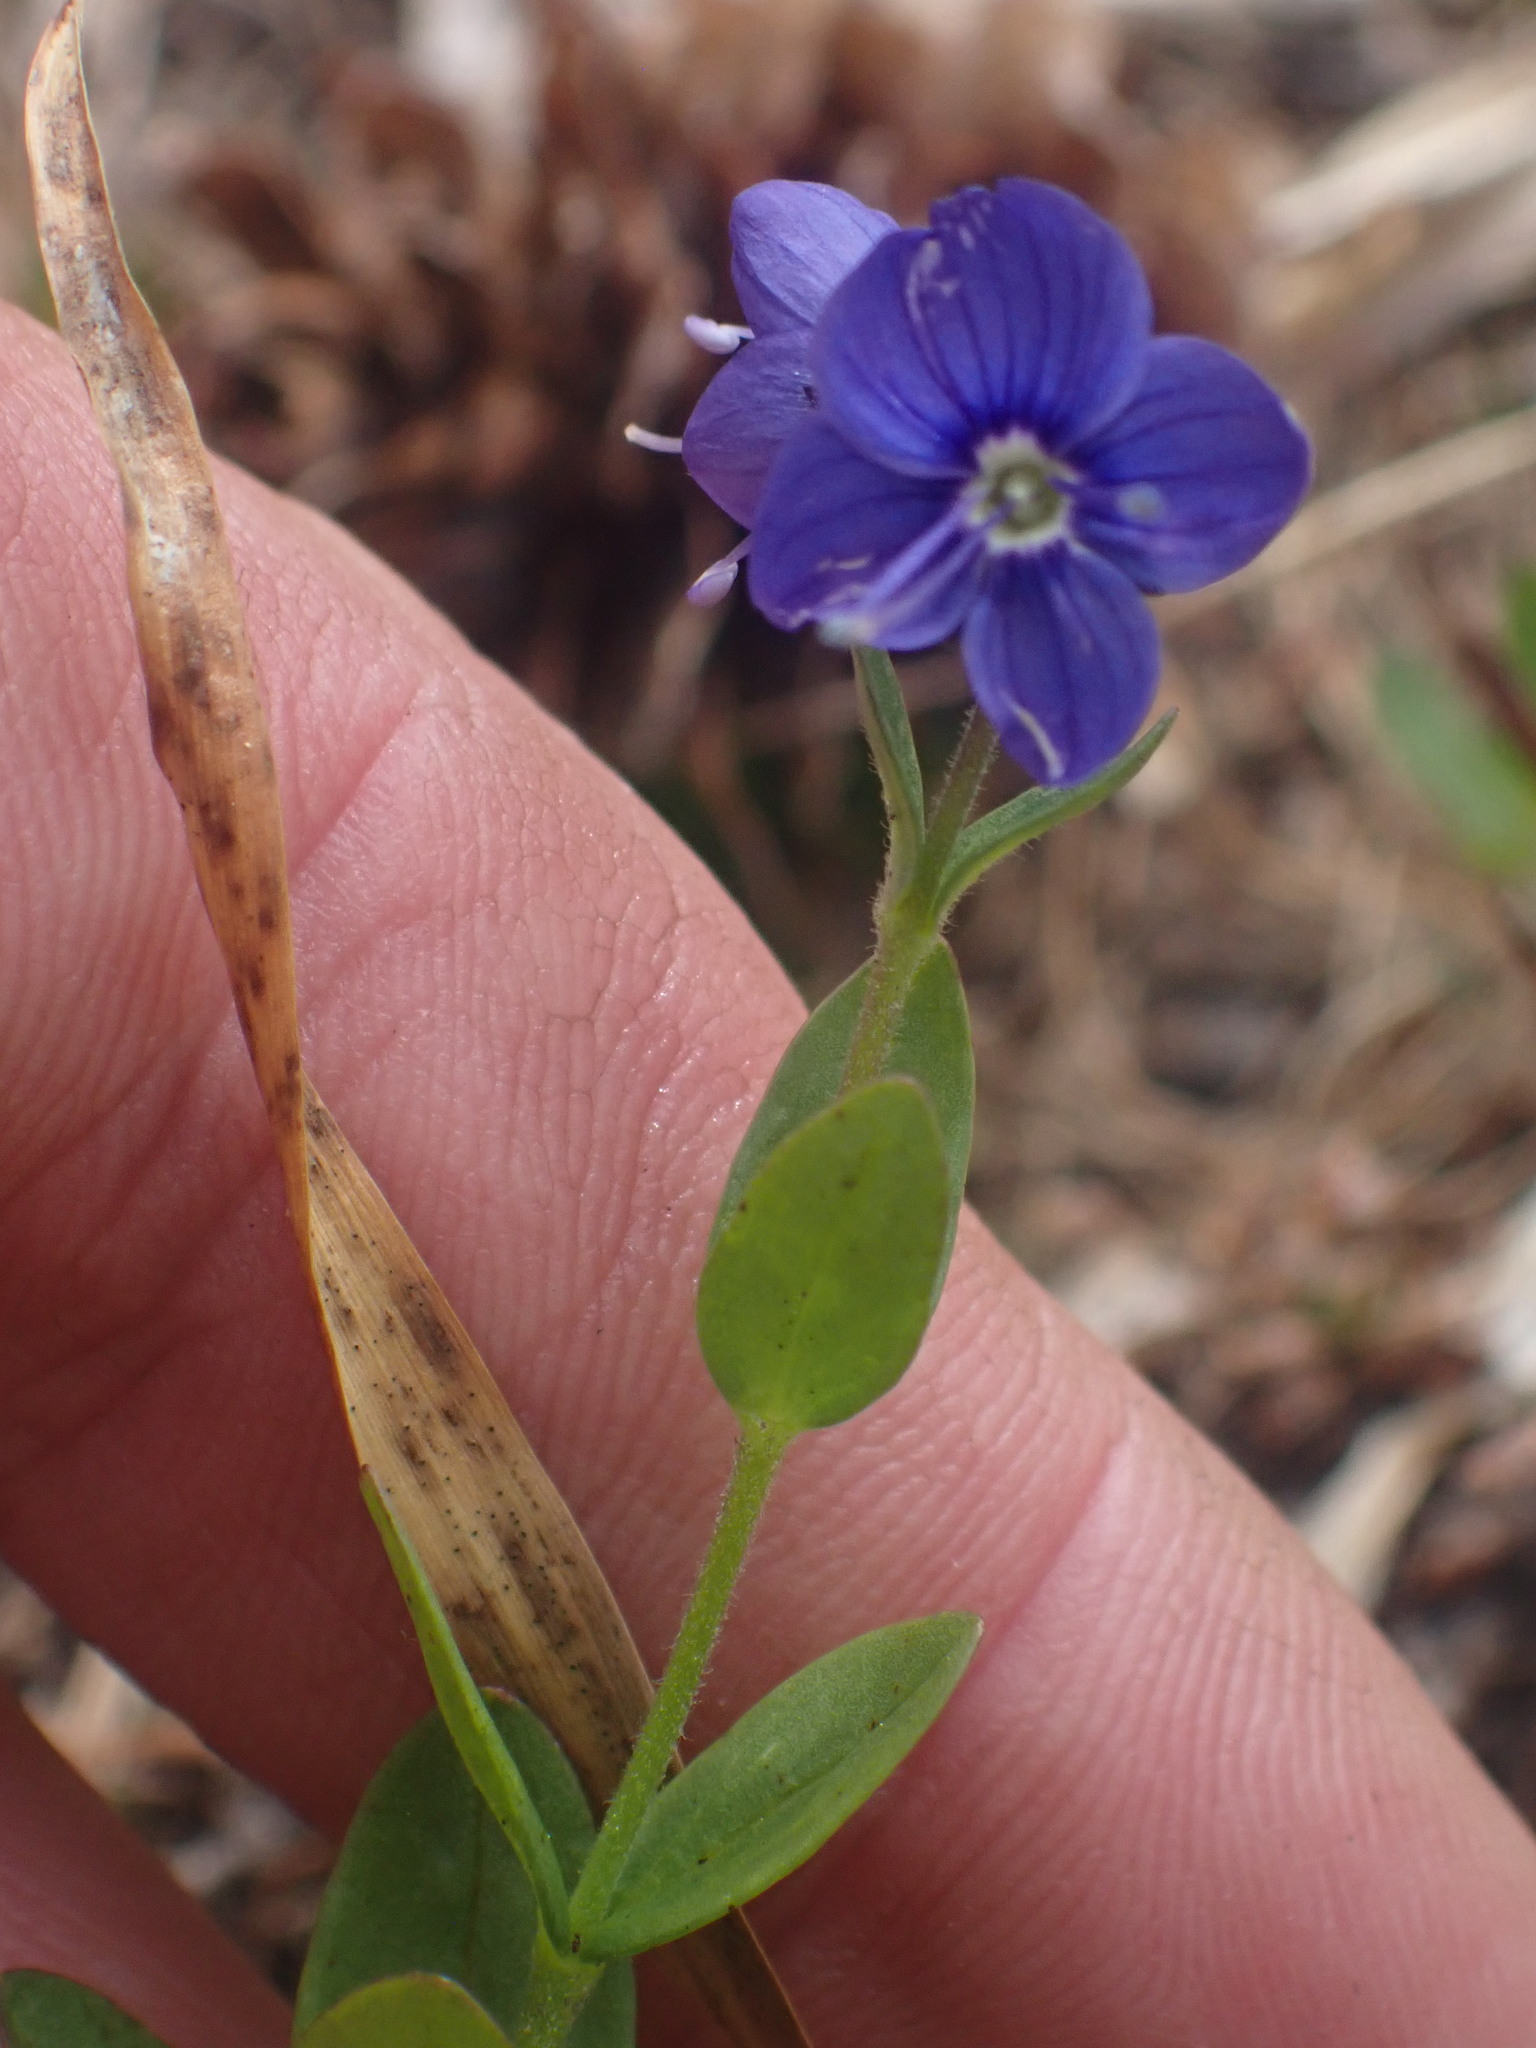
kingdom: Plantae
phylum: Tracheophyta
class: Magnoliopsida
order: Lamiales
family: Plantaginaceae
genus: Veronica
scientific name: Veronica cusickii
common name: Cusick's speedwell
